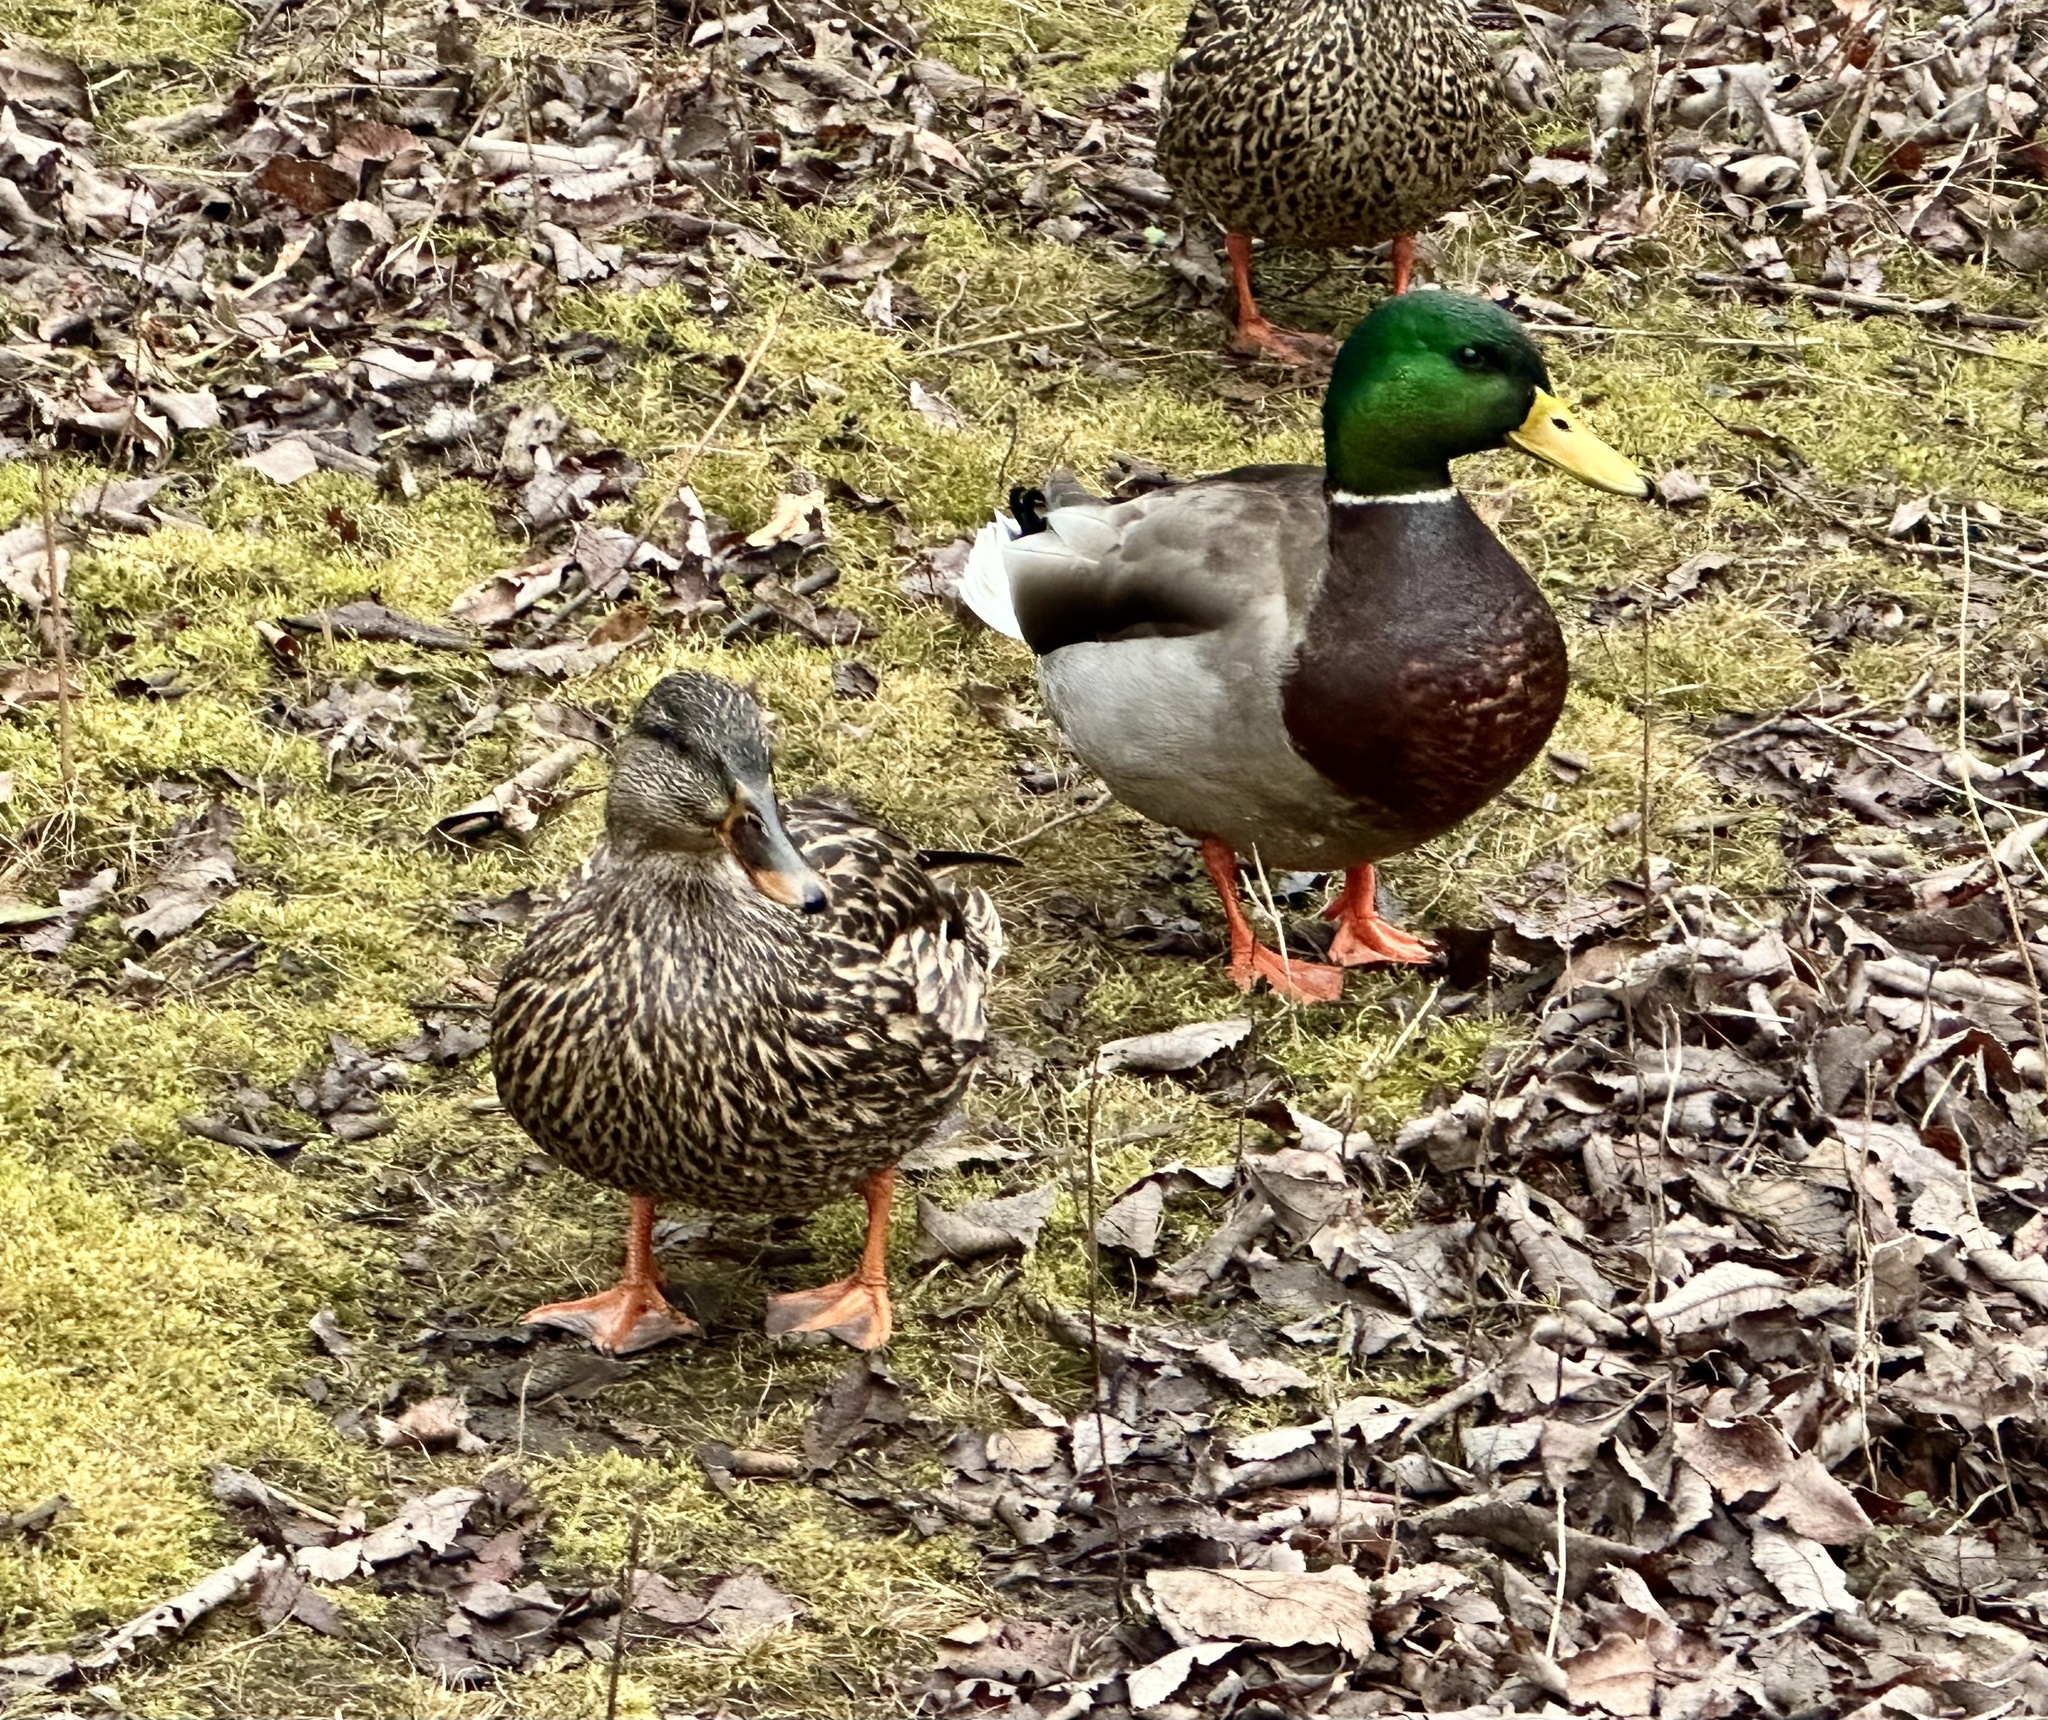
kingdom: Animalia
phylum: Chordata
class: Aves
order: Anseriformes
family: Anatidae
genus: Anas
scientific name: Anas platyrhynchos
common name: Mallard
